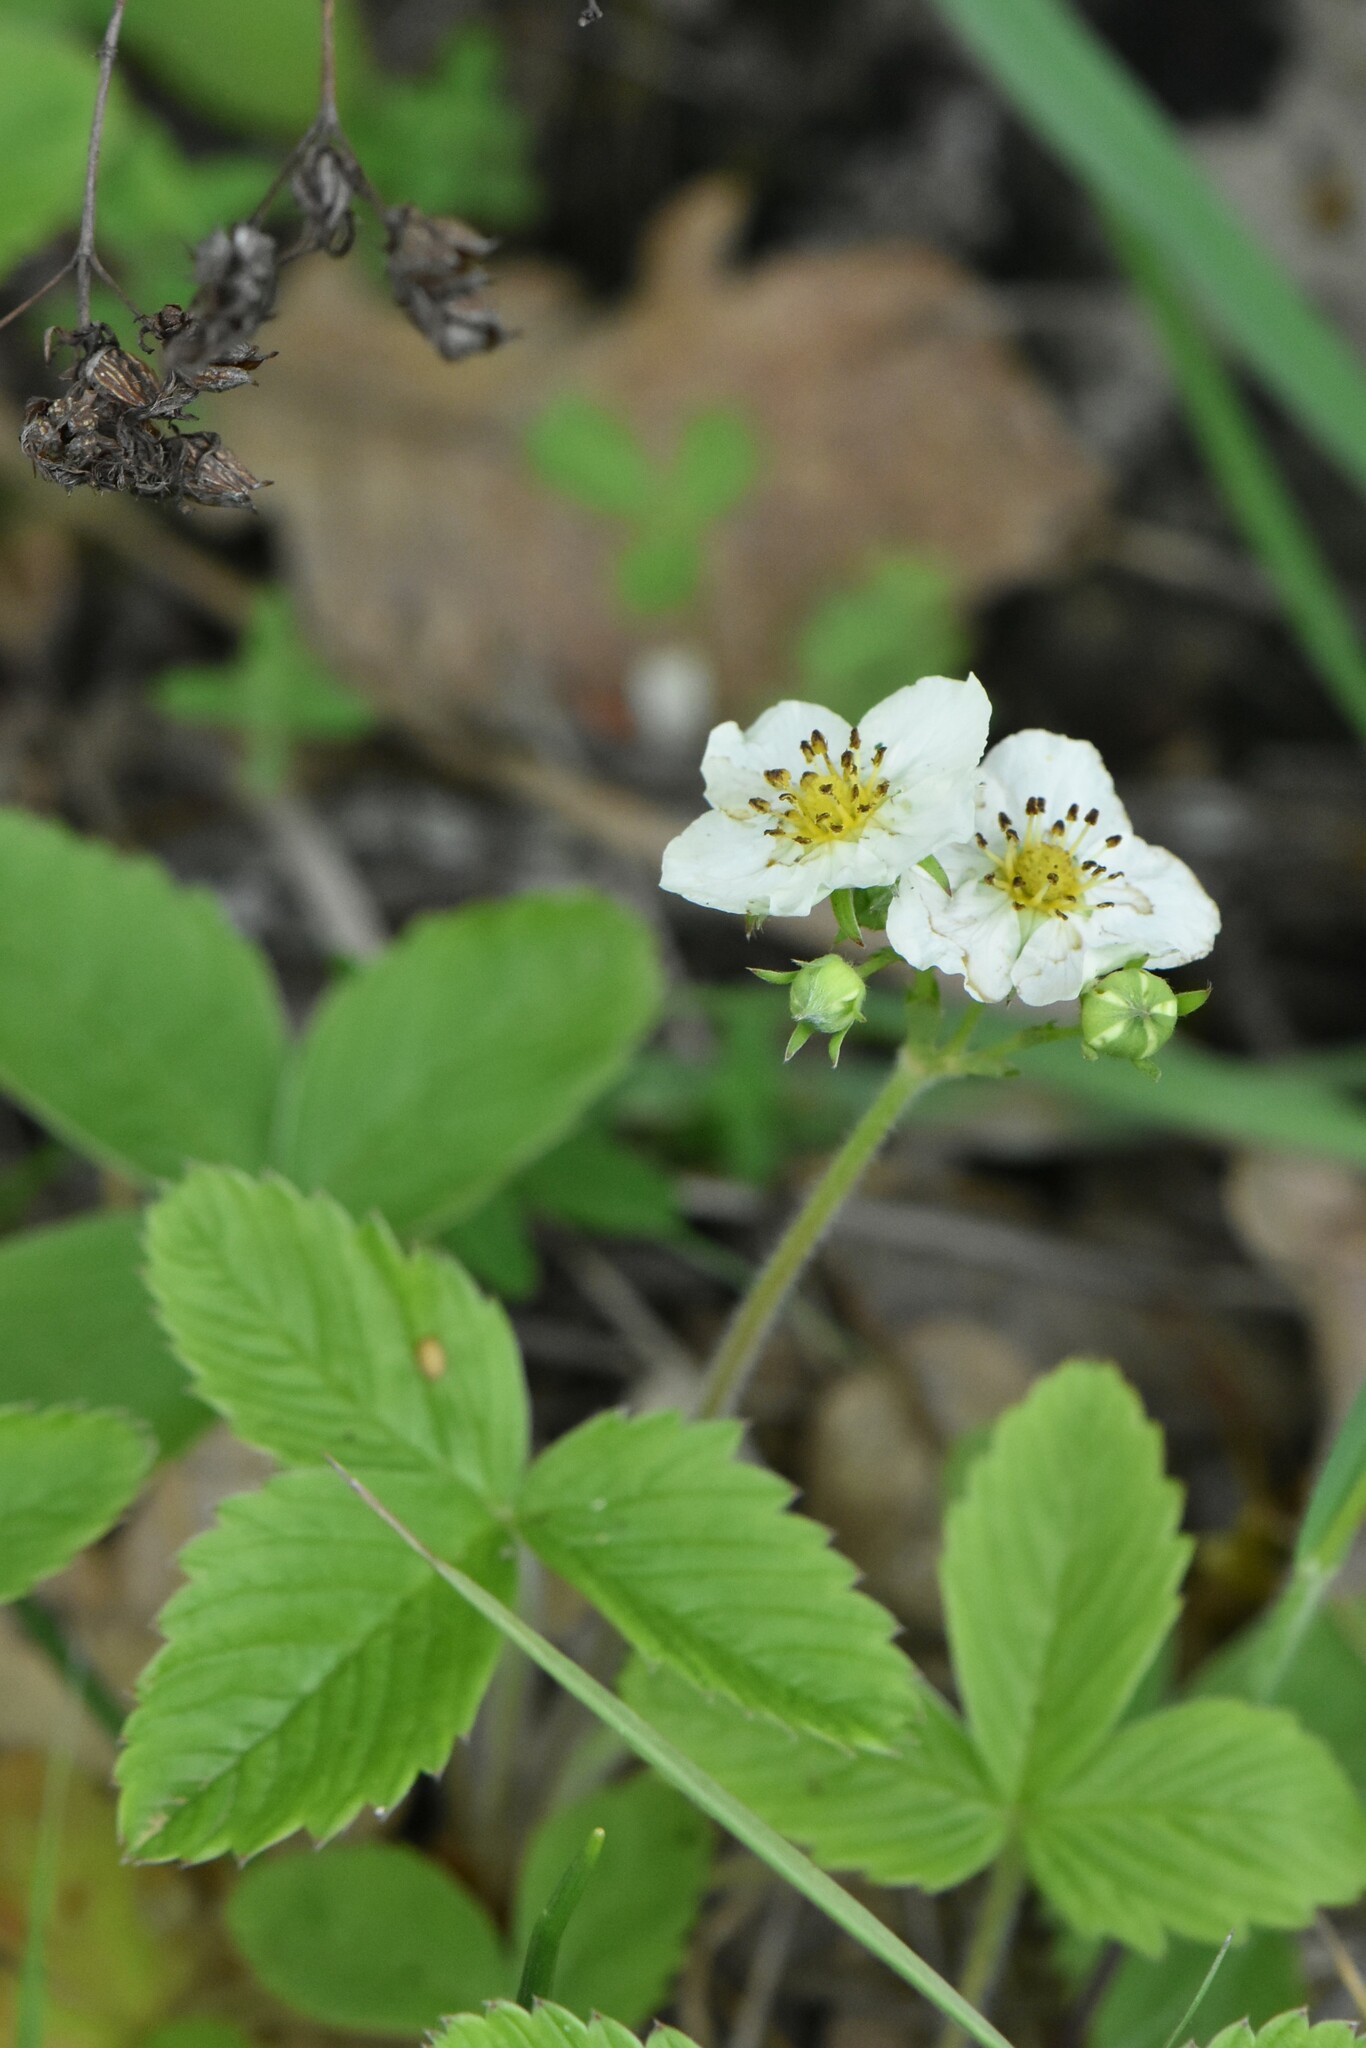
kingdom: Plantae
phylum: Tracheophyta
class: Magnoliopsida
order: Rosales
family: Rosaceae
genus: Fragaria
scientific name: Fragaria viridis
